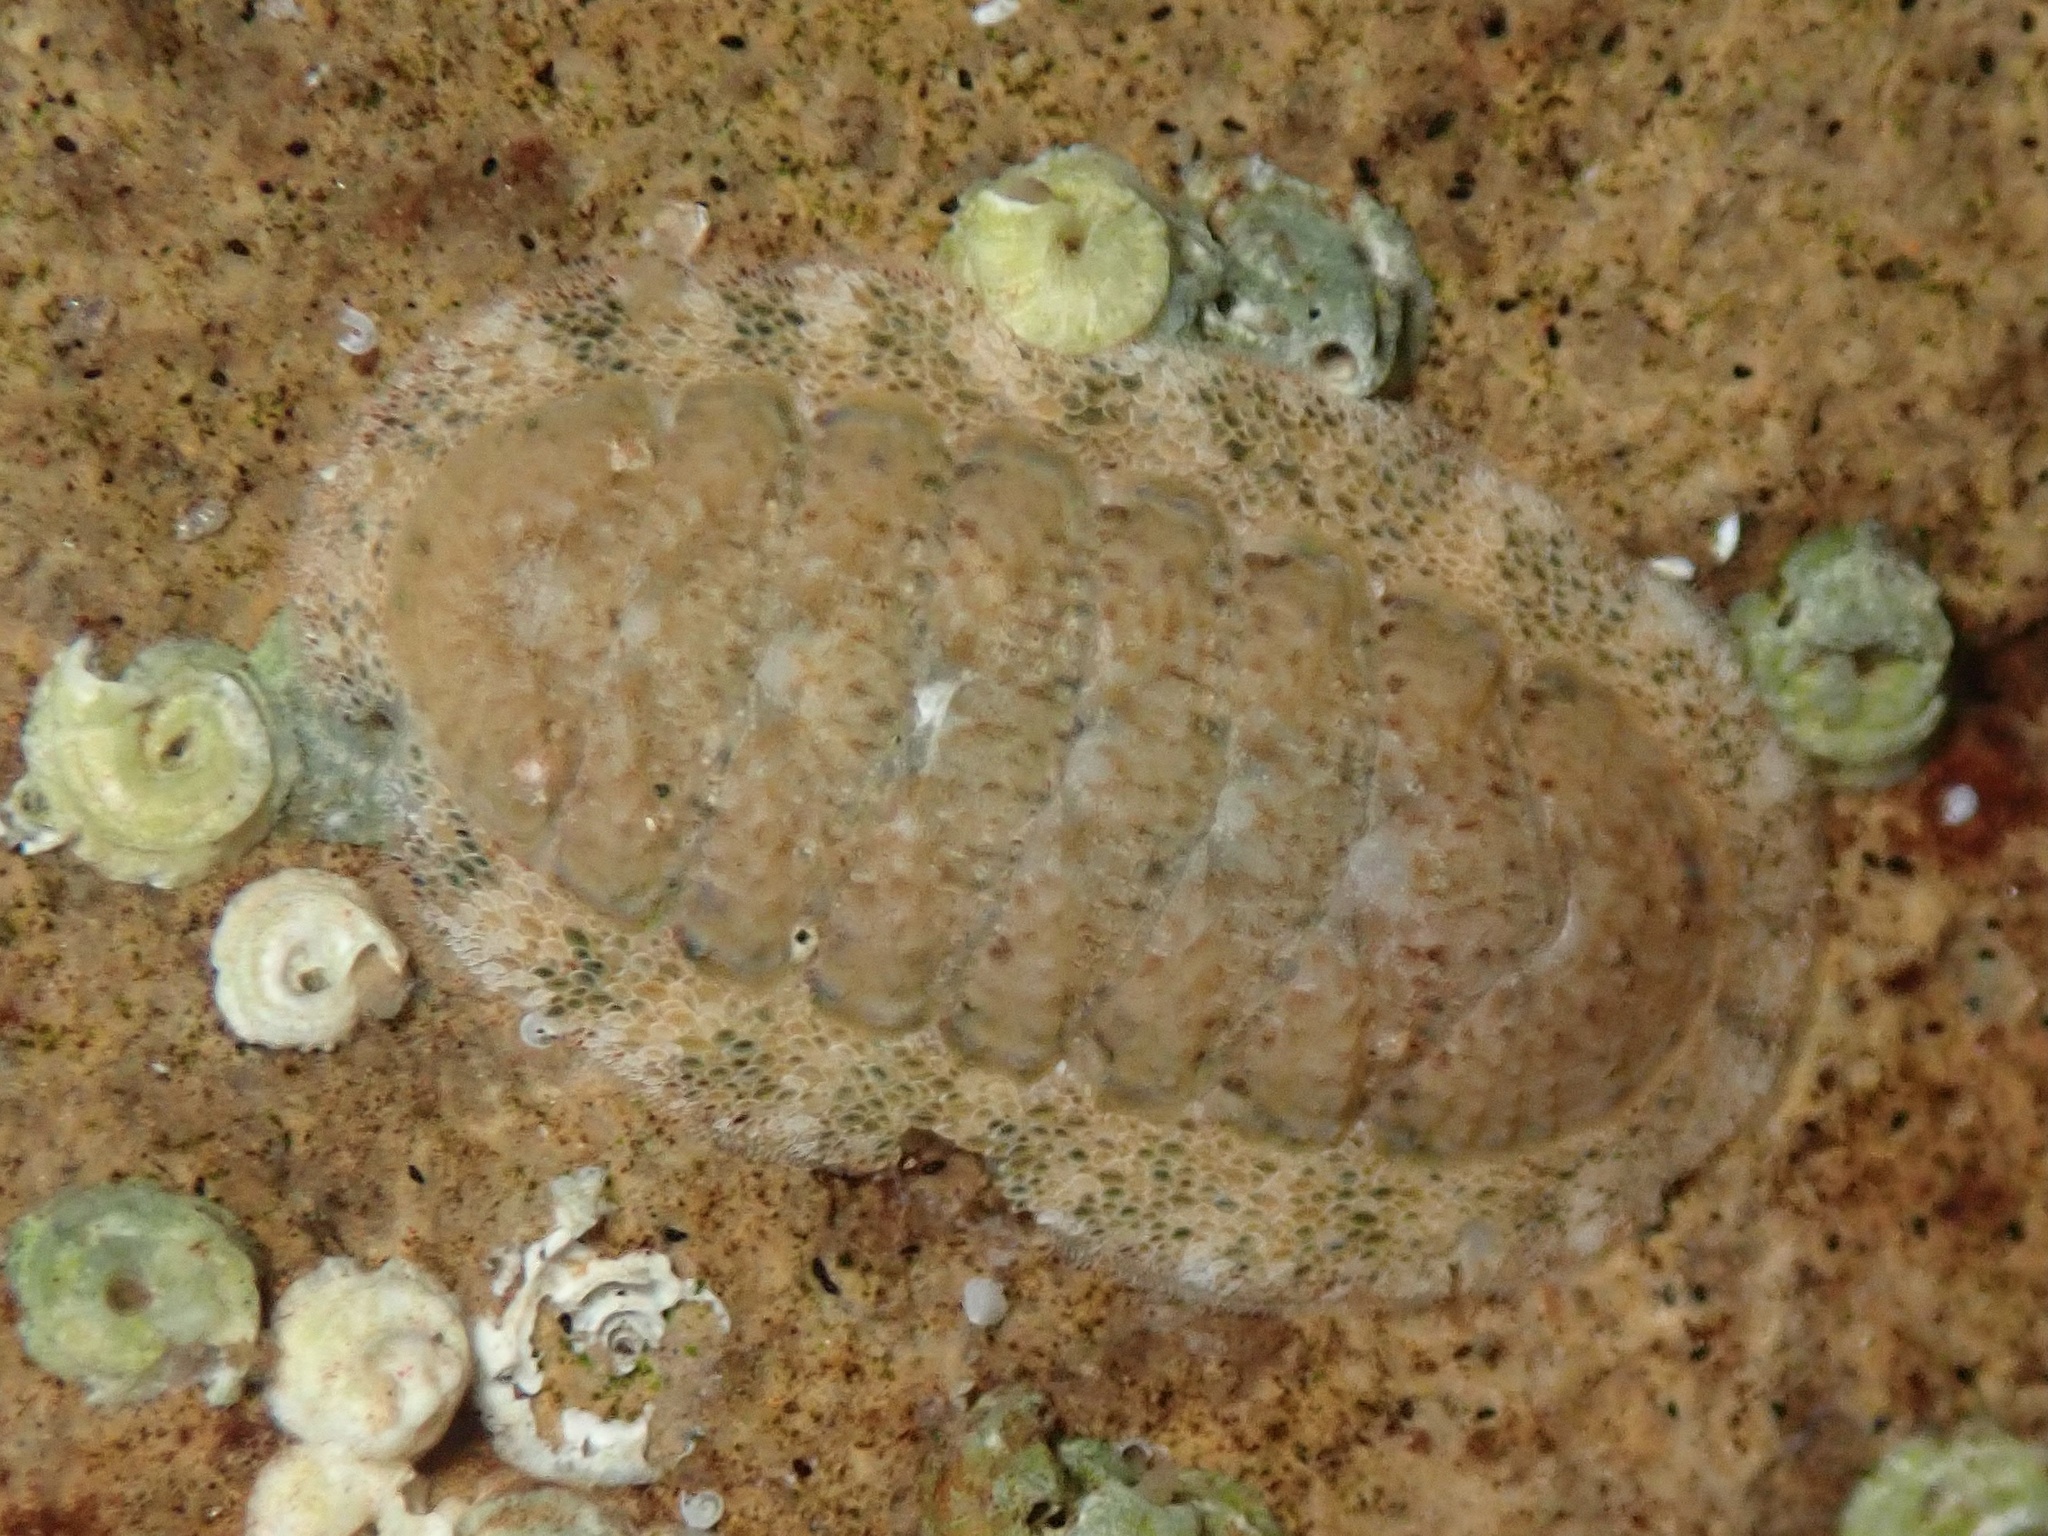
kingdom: Animalia
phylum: Mollusca
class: Polyplacophora
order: Chitonida
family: Ischnochitonidae
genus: Lepidozona
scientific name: Lepidozona pectinulata
